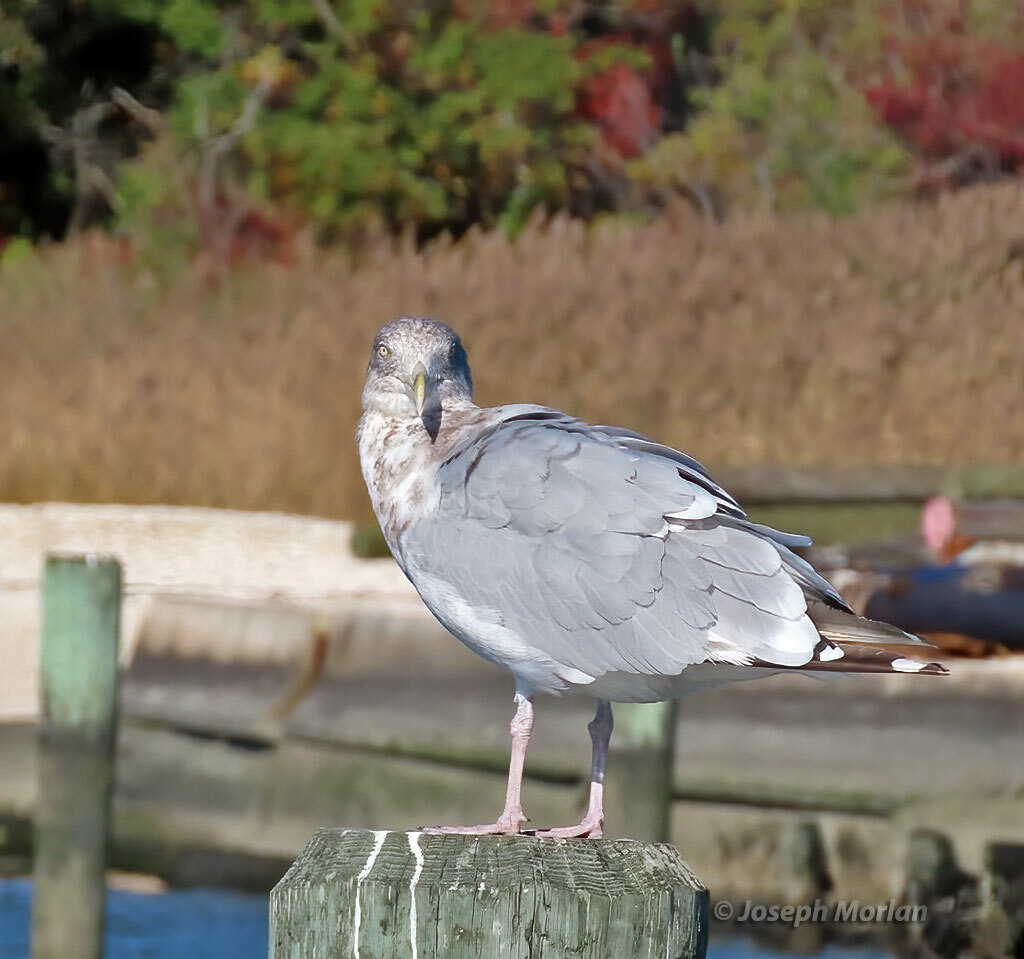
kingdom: Animalia
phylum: Chordata
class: Aves
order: Charadriiformes
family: Laridae
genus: Larus
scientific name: Larus argentatus
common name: Herring gull
